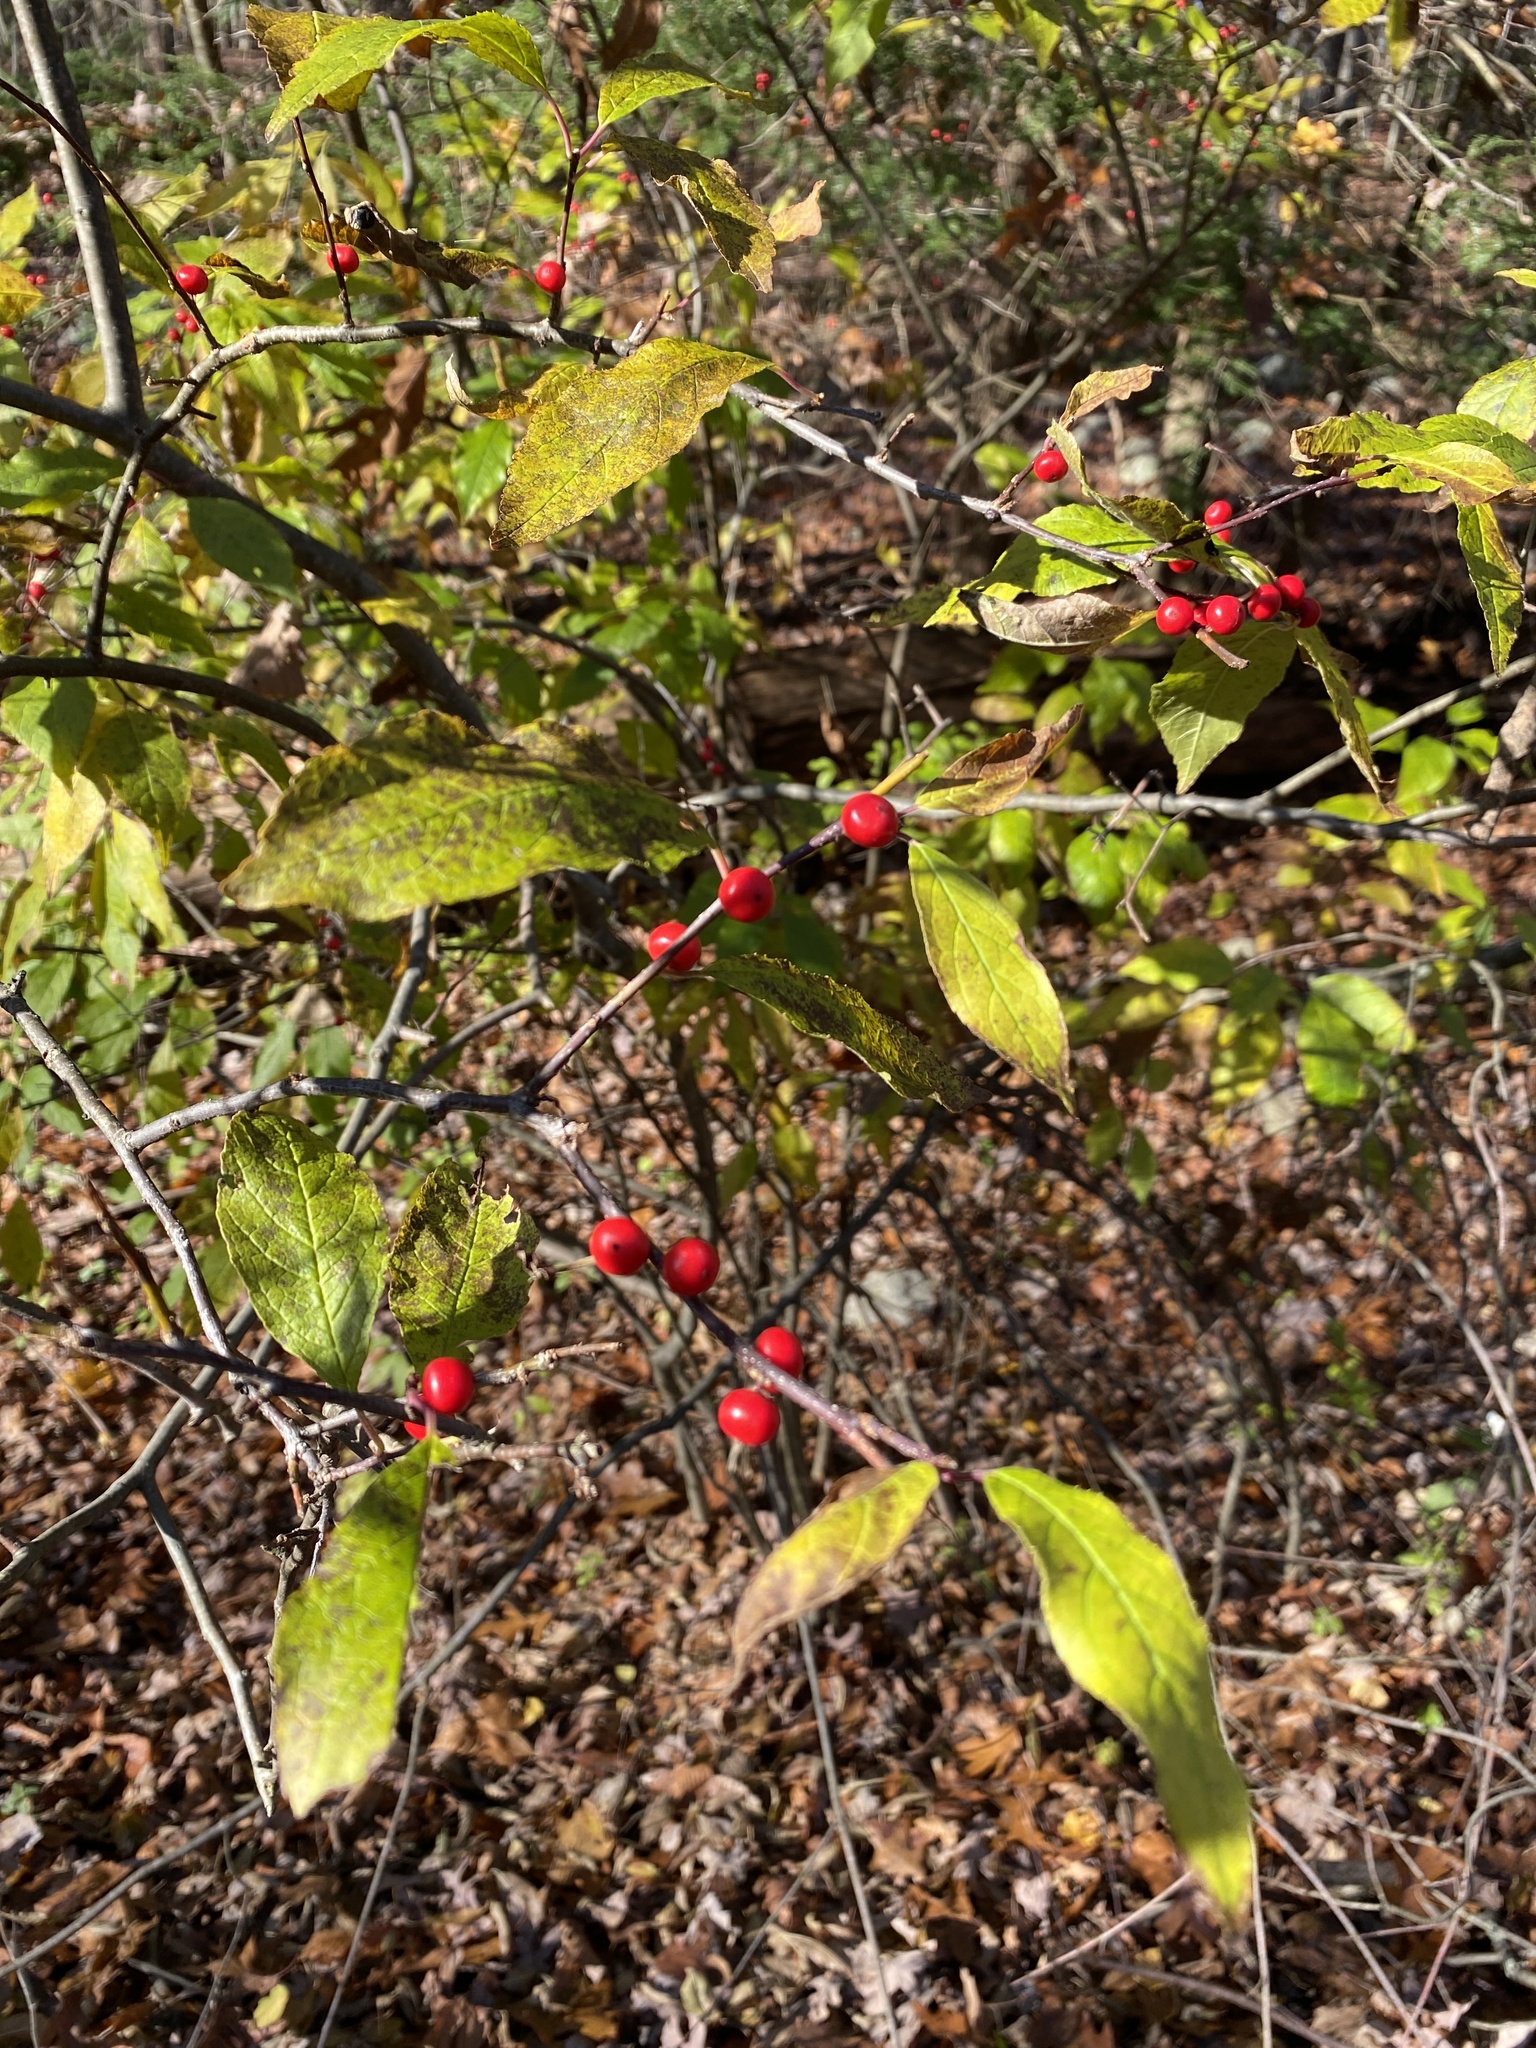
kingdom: Plantae
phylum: Tracheophyta
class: Magnoliopsida
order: Aquifoliales
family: Aquifoliaceae
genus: Ilex
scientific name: Ilex verticillata
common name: Virginia winterberry
